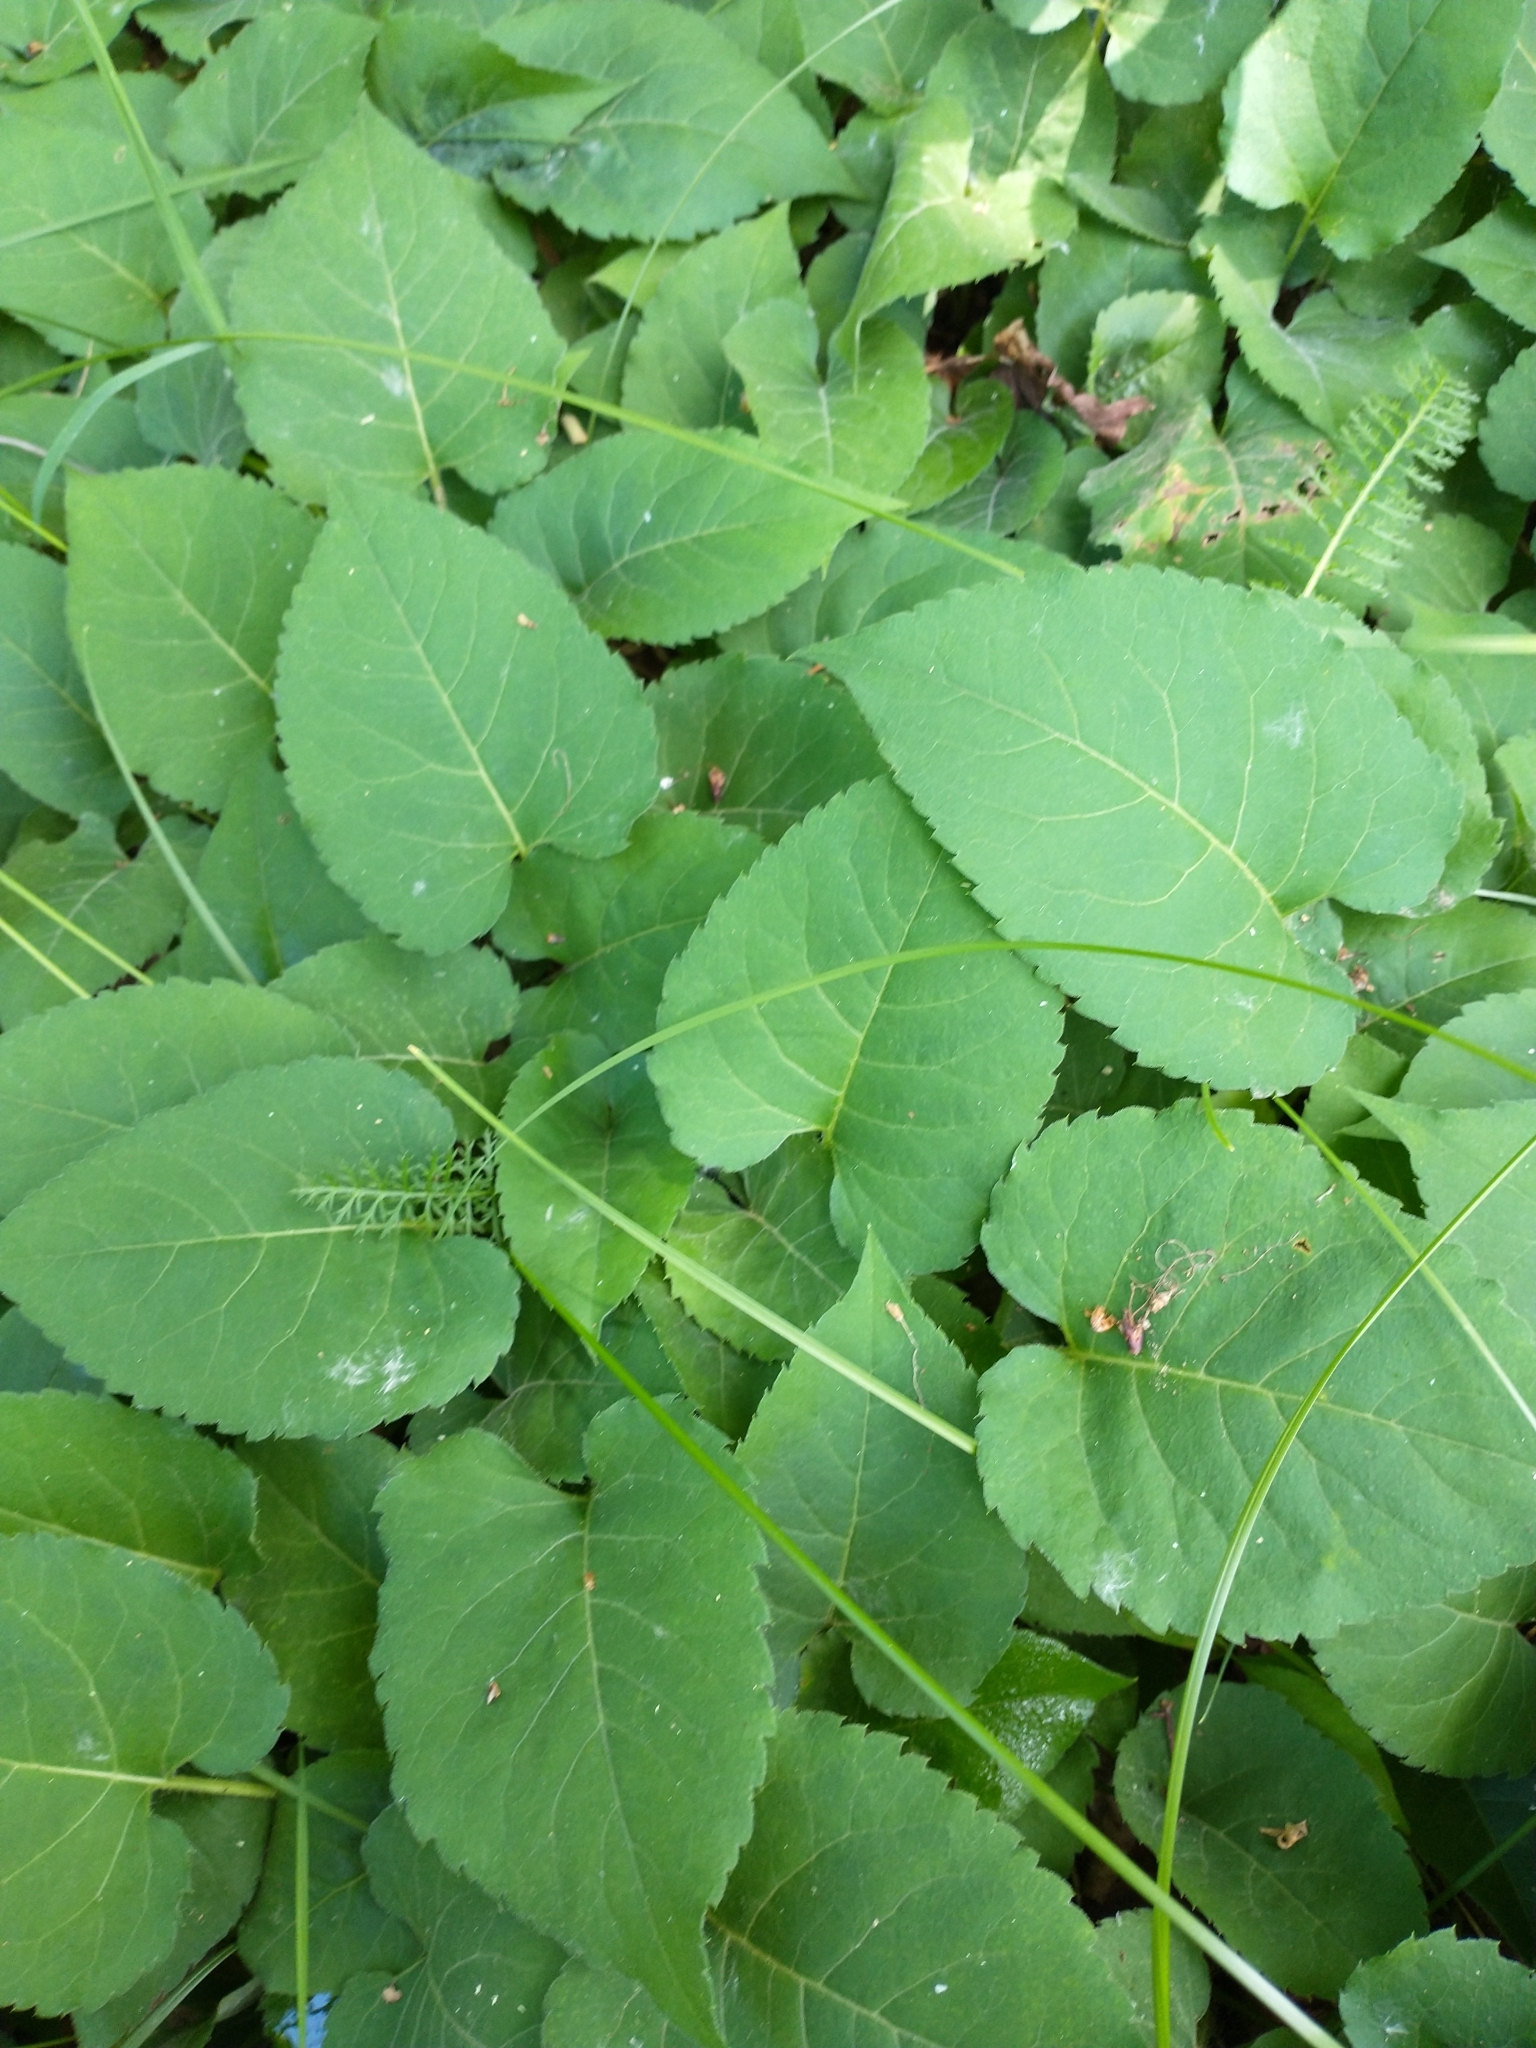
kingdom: Plantae
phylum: Tracheophyta
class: Magnoliopsida
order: Asterales
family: Asteraceae
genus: Eurybia
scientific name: Eurybia macrophylla
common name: Big-leaved aster
